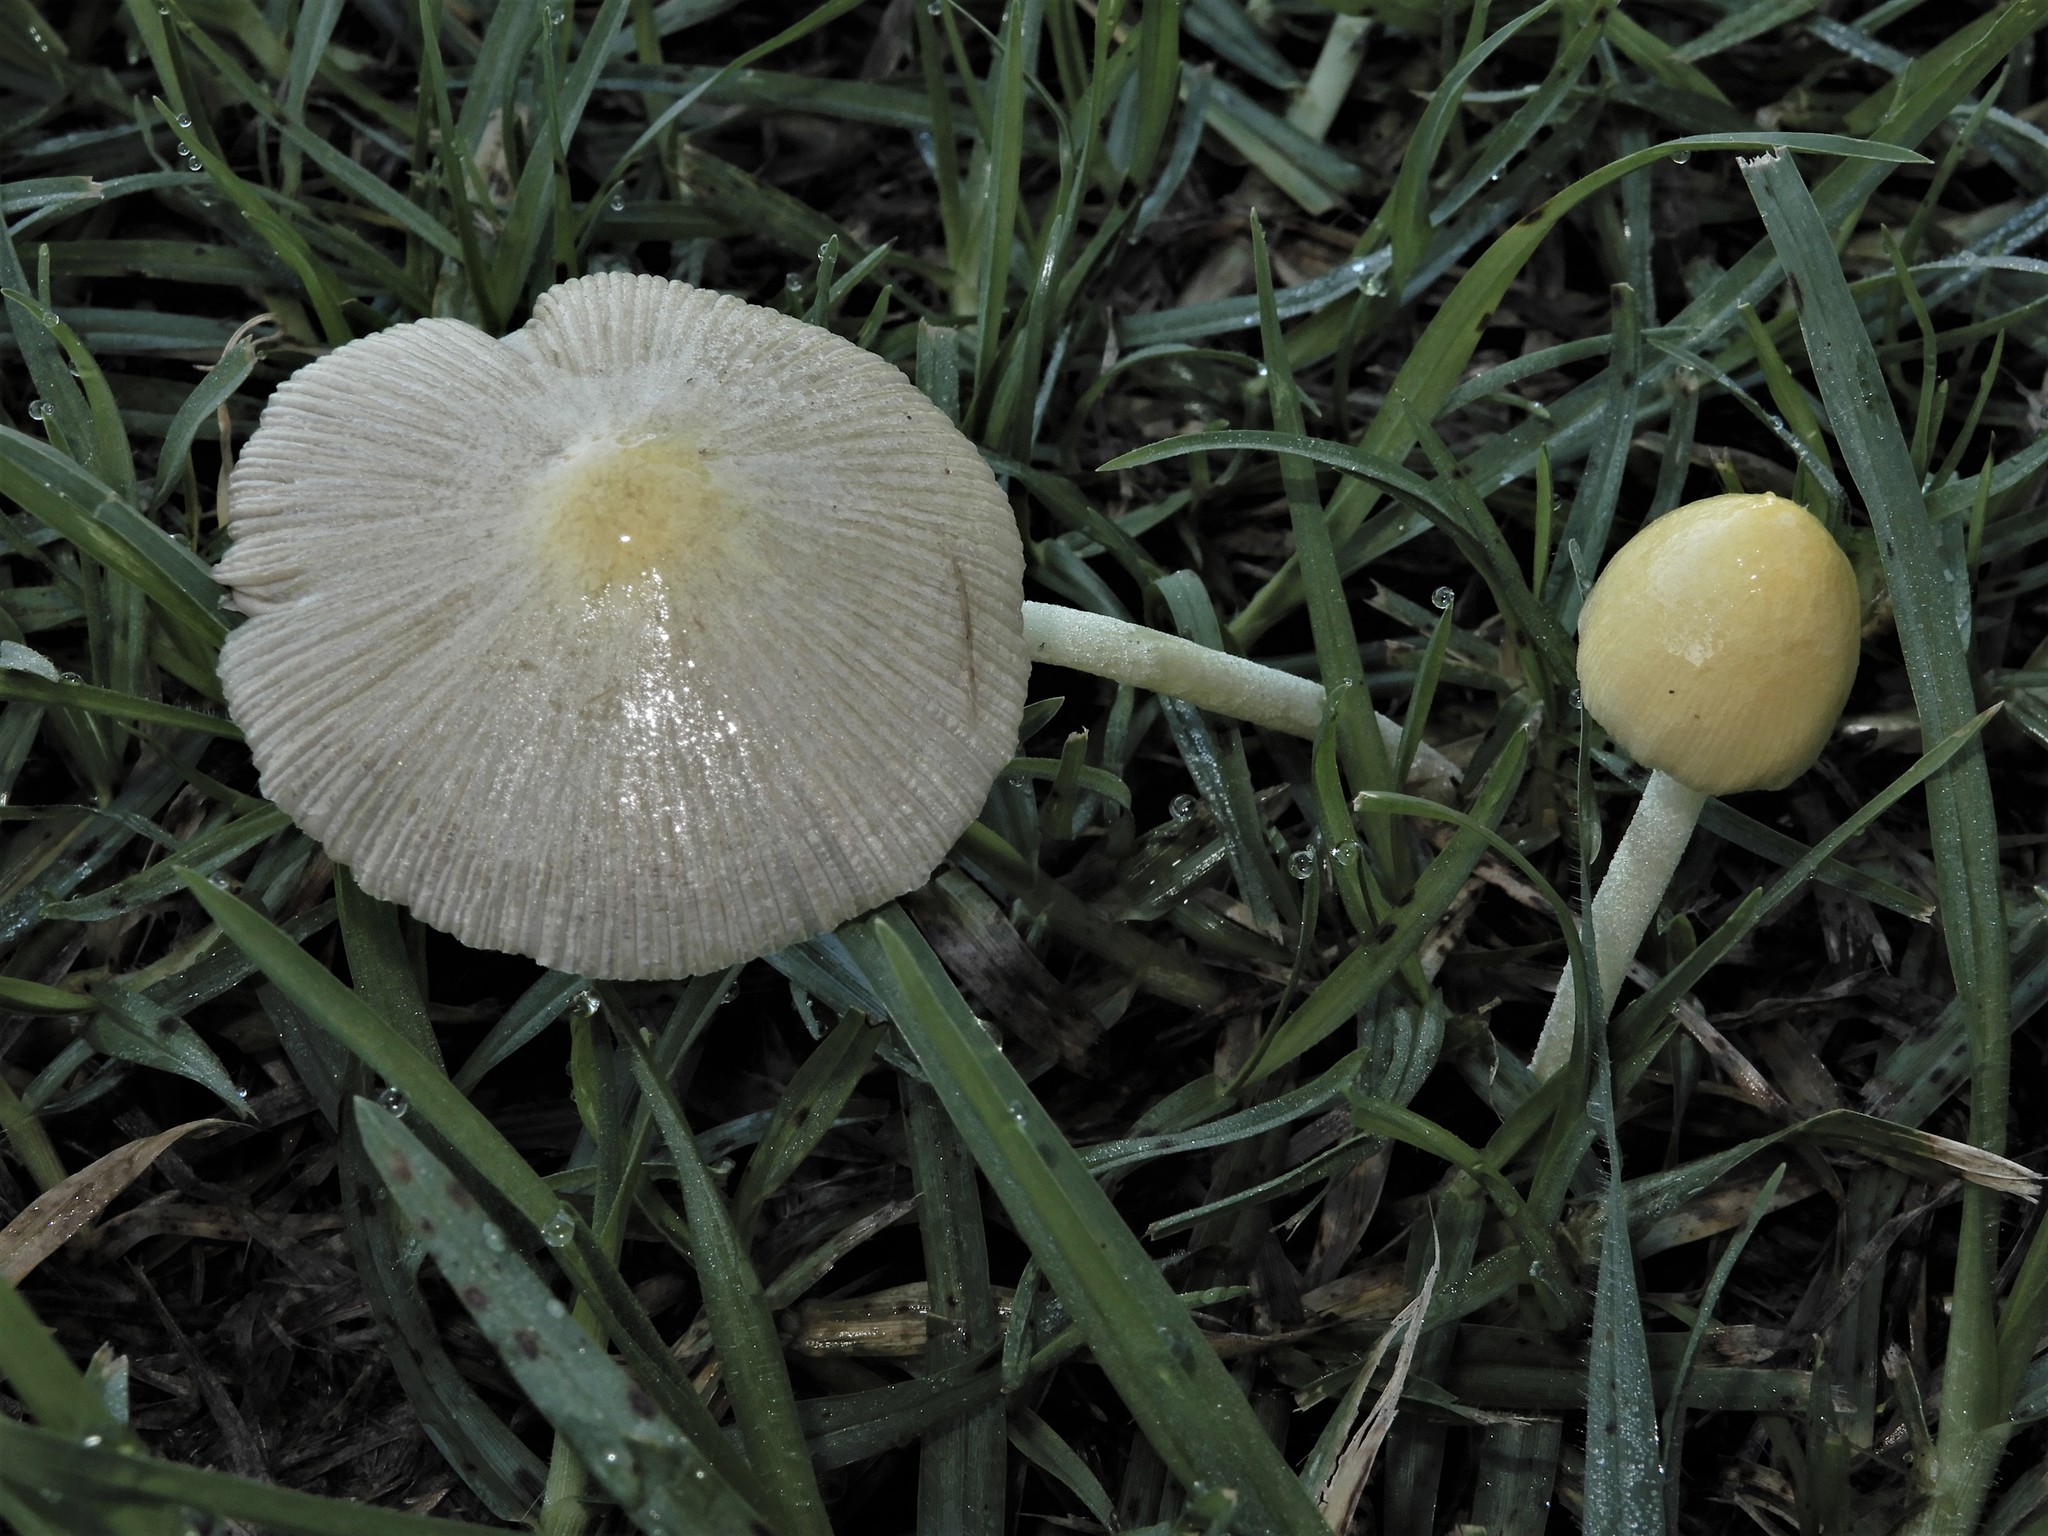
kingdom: Fungi
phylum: Basidiomycota
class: Agaricomycetes
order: Agaricales
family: Bolbitiaceae
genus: Bolbitius
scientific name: Bolbitius titubans
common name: Yellow fieldcap
